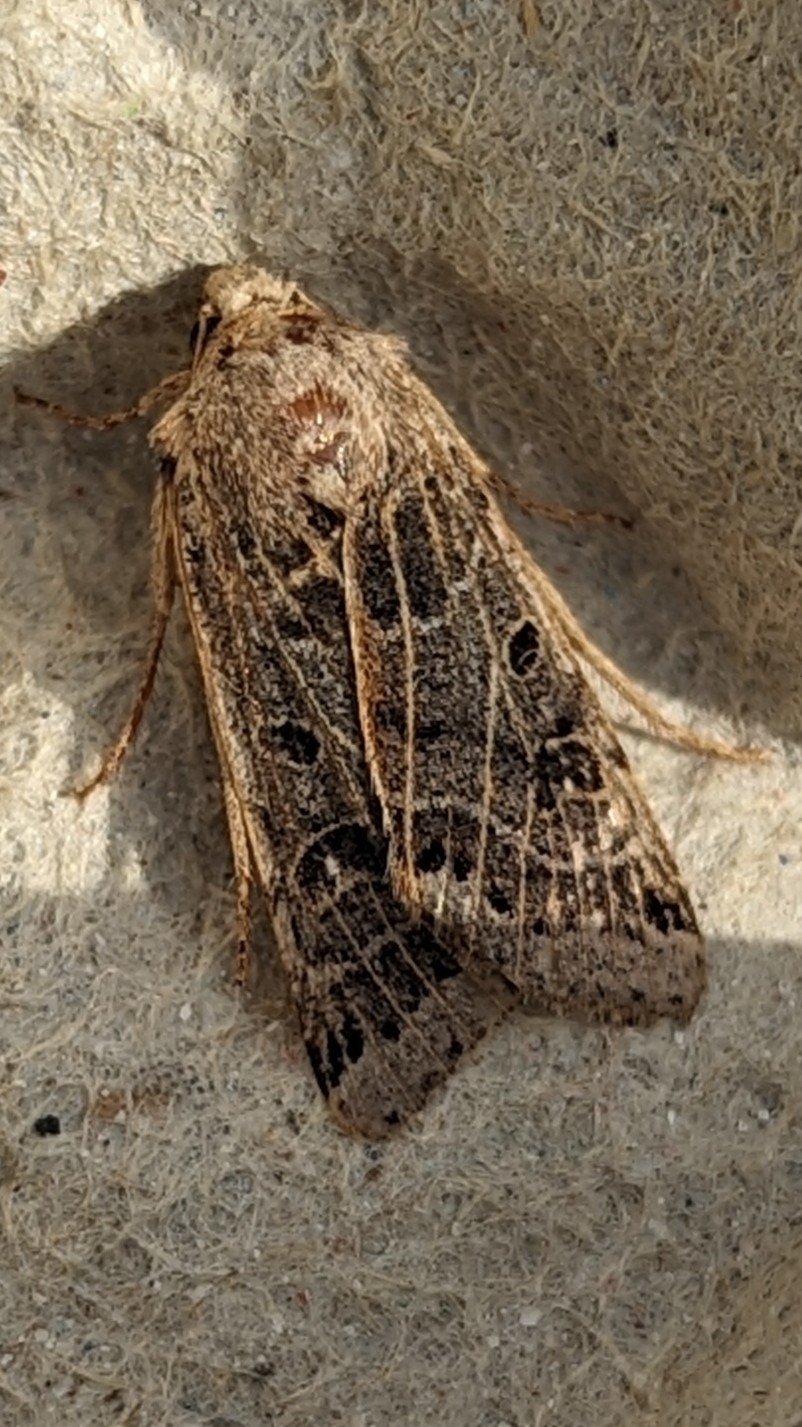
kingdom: Animalia
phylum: Arthropoda
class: Insecta
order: Lepidoptera
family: Noctuidae
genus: Agrochola
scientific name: Agrochola lunosa
